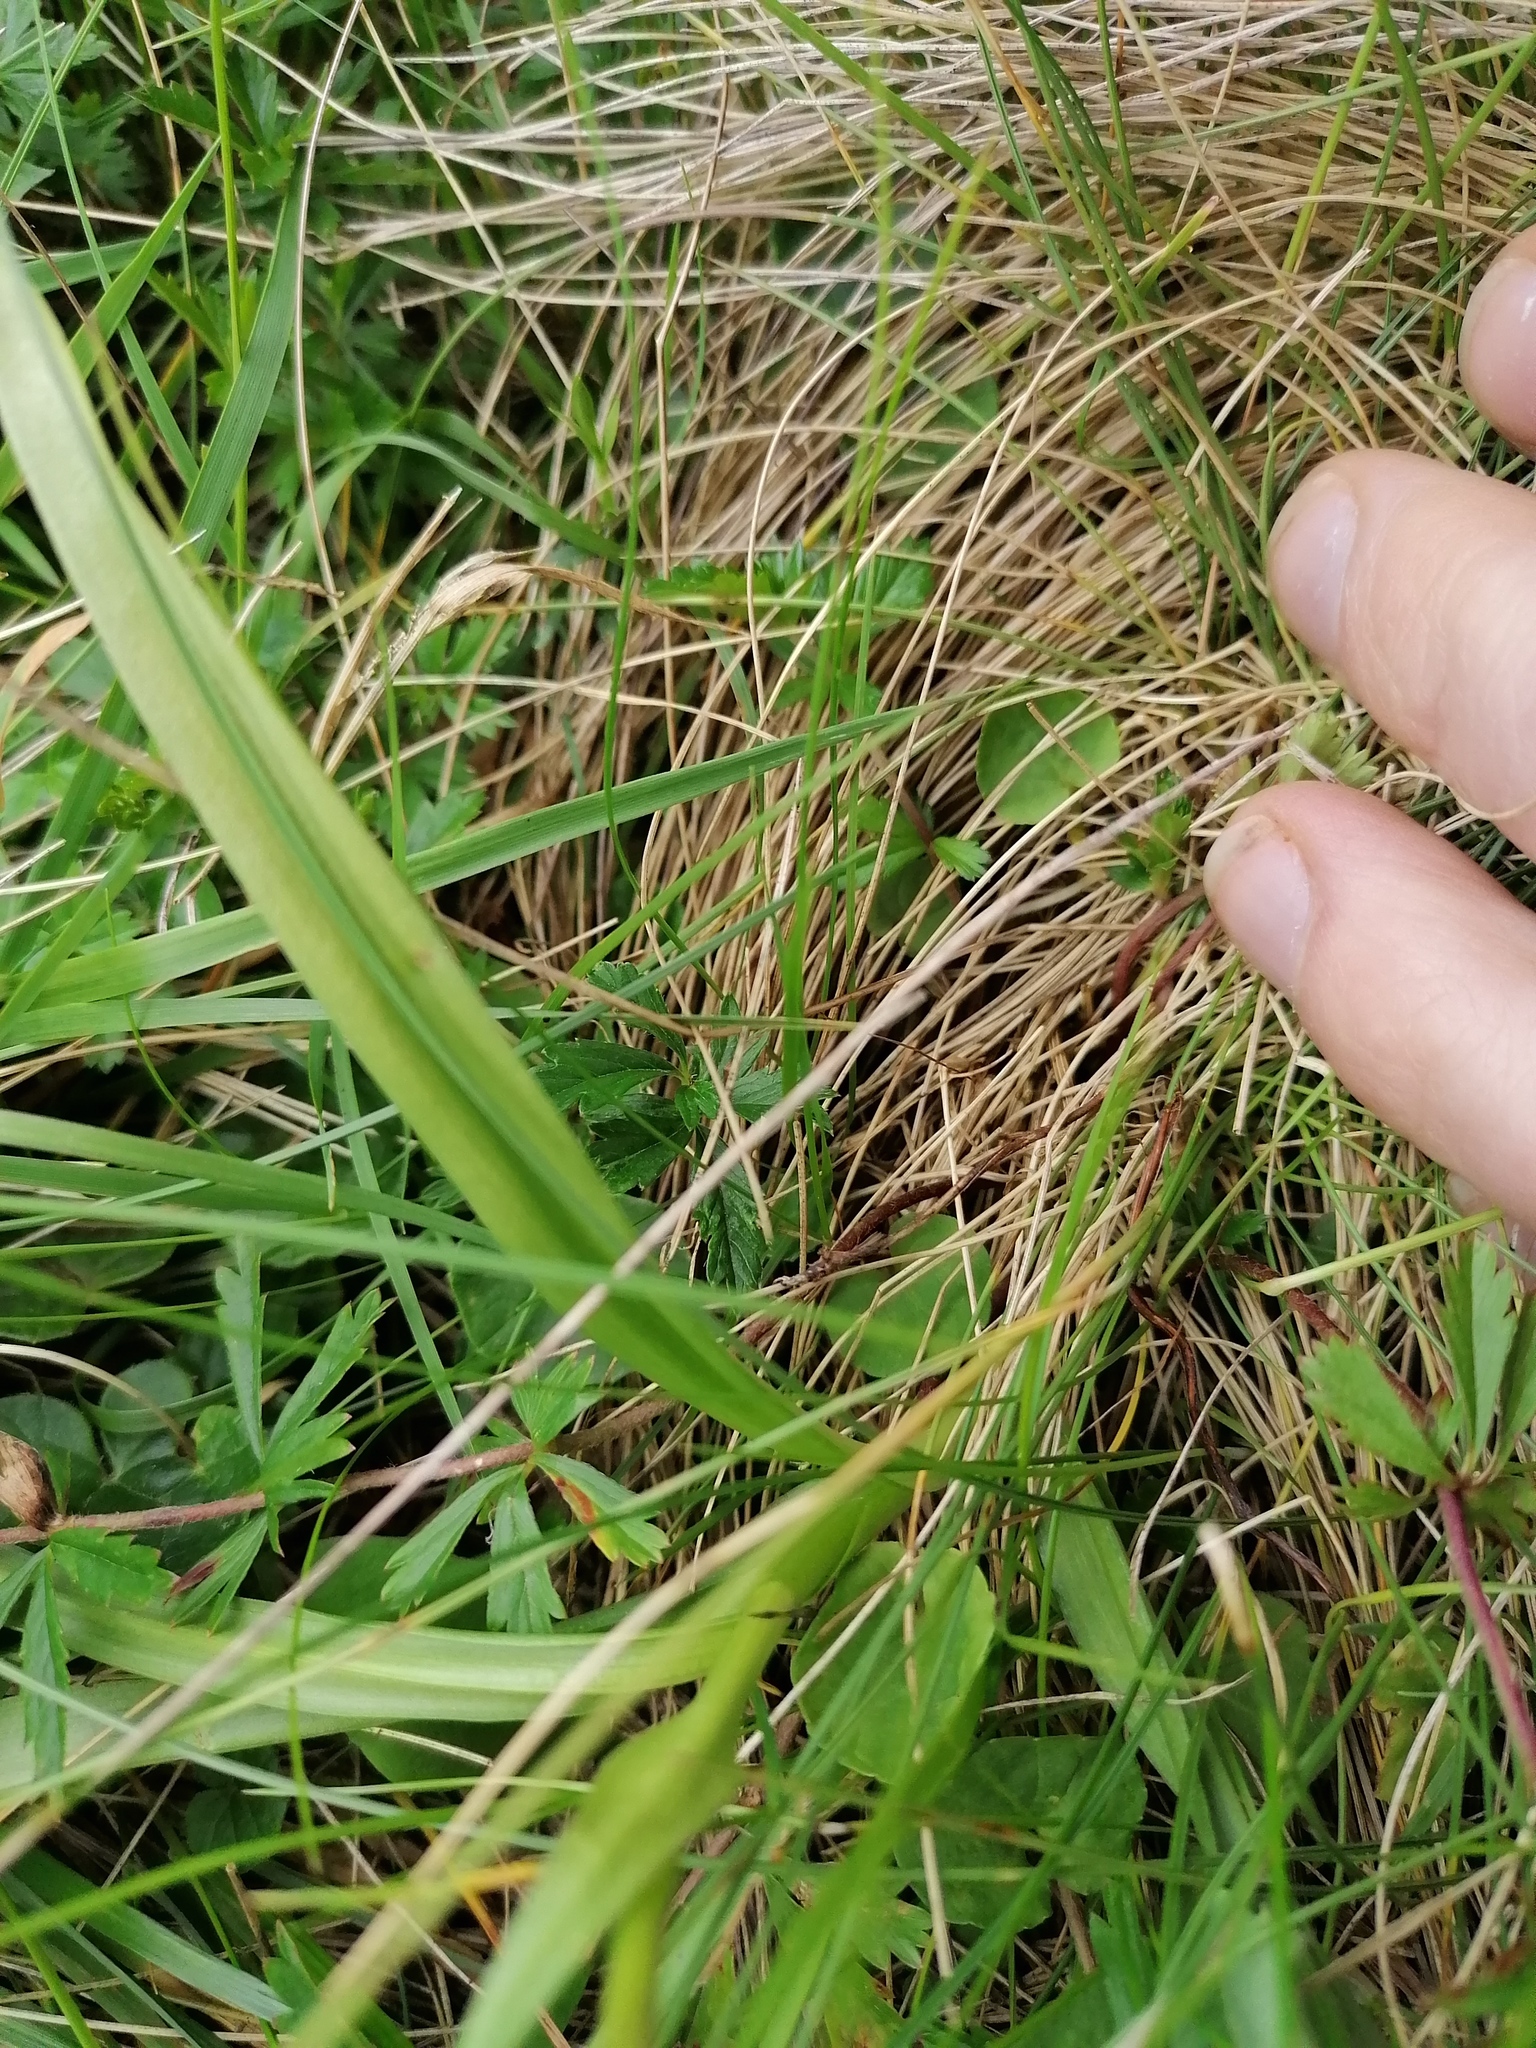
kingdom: Plantae
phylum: Tracheophyta
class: Liliopsida
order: Asparagales
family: Orchidaceae
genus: Gymnadenia
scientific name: Gymnadenia conopsea
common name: Fragrant orchid
